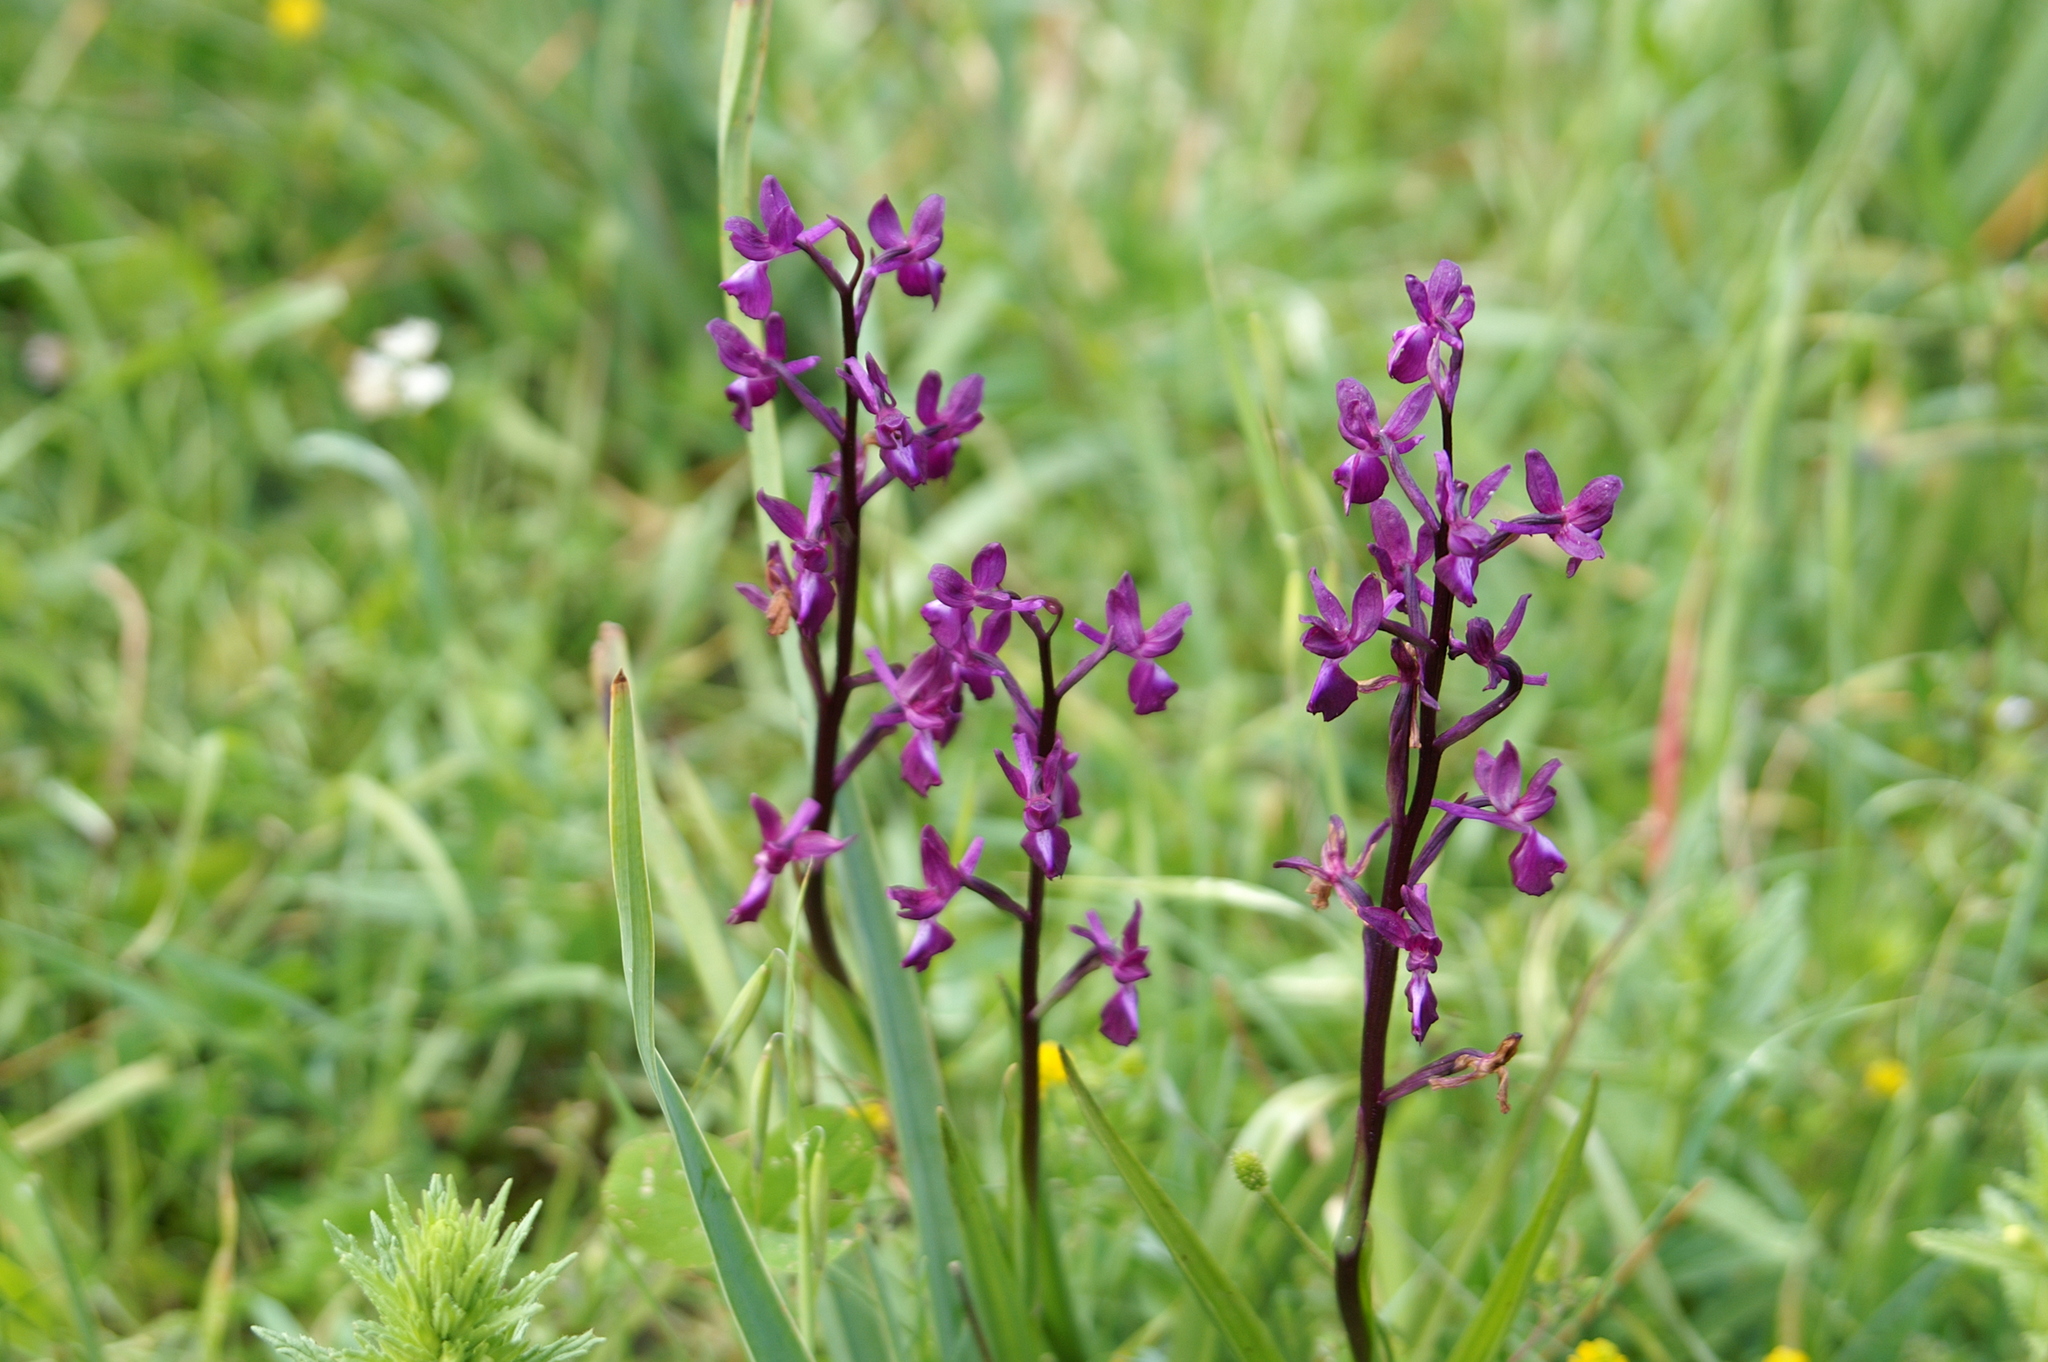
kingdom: Plantae
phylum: Tracheophyta
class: Liliopsida
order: Asparagales
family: Orchidaceae
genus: Anacamptis
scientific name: Anacamptis laxiflora
